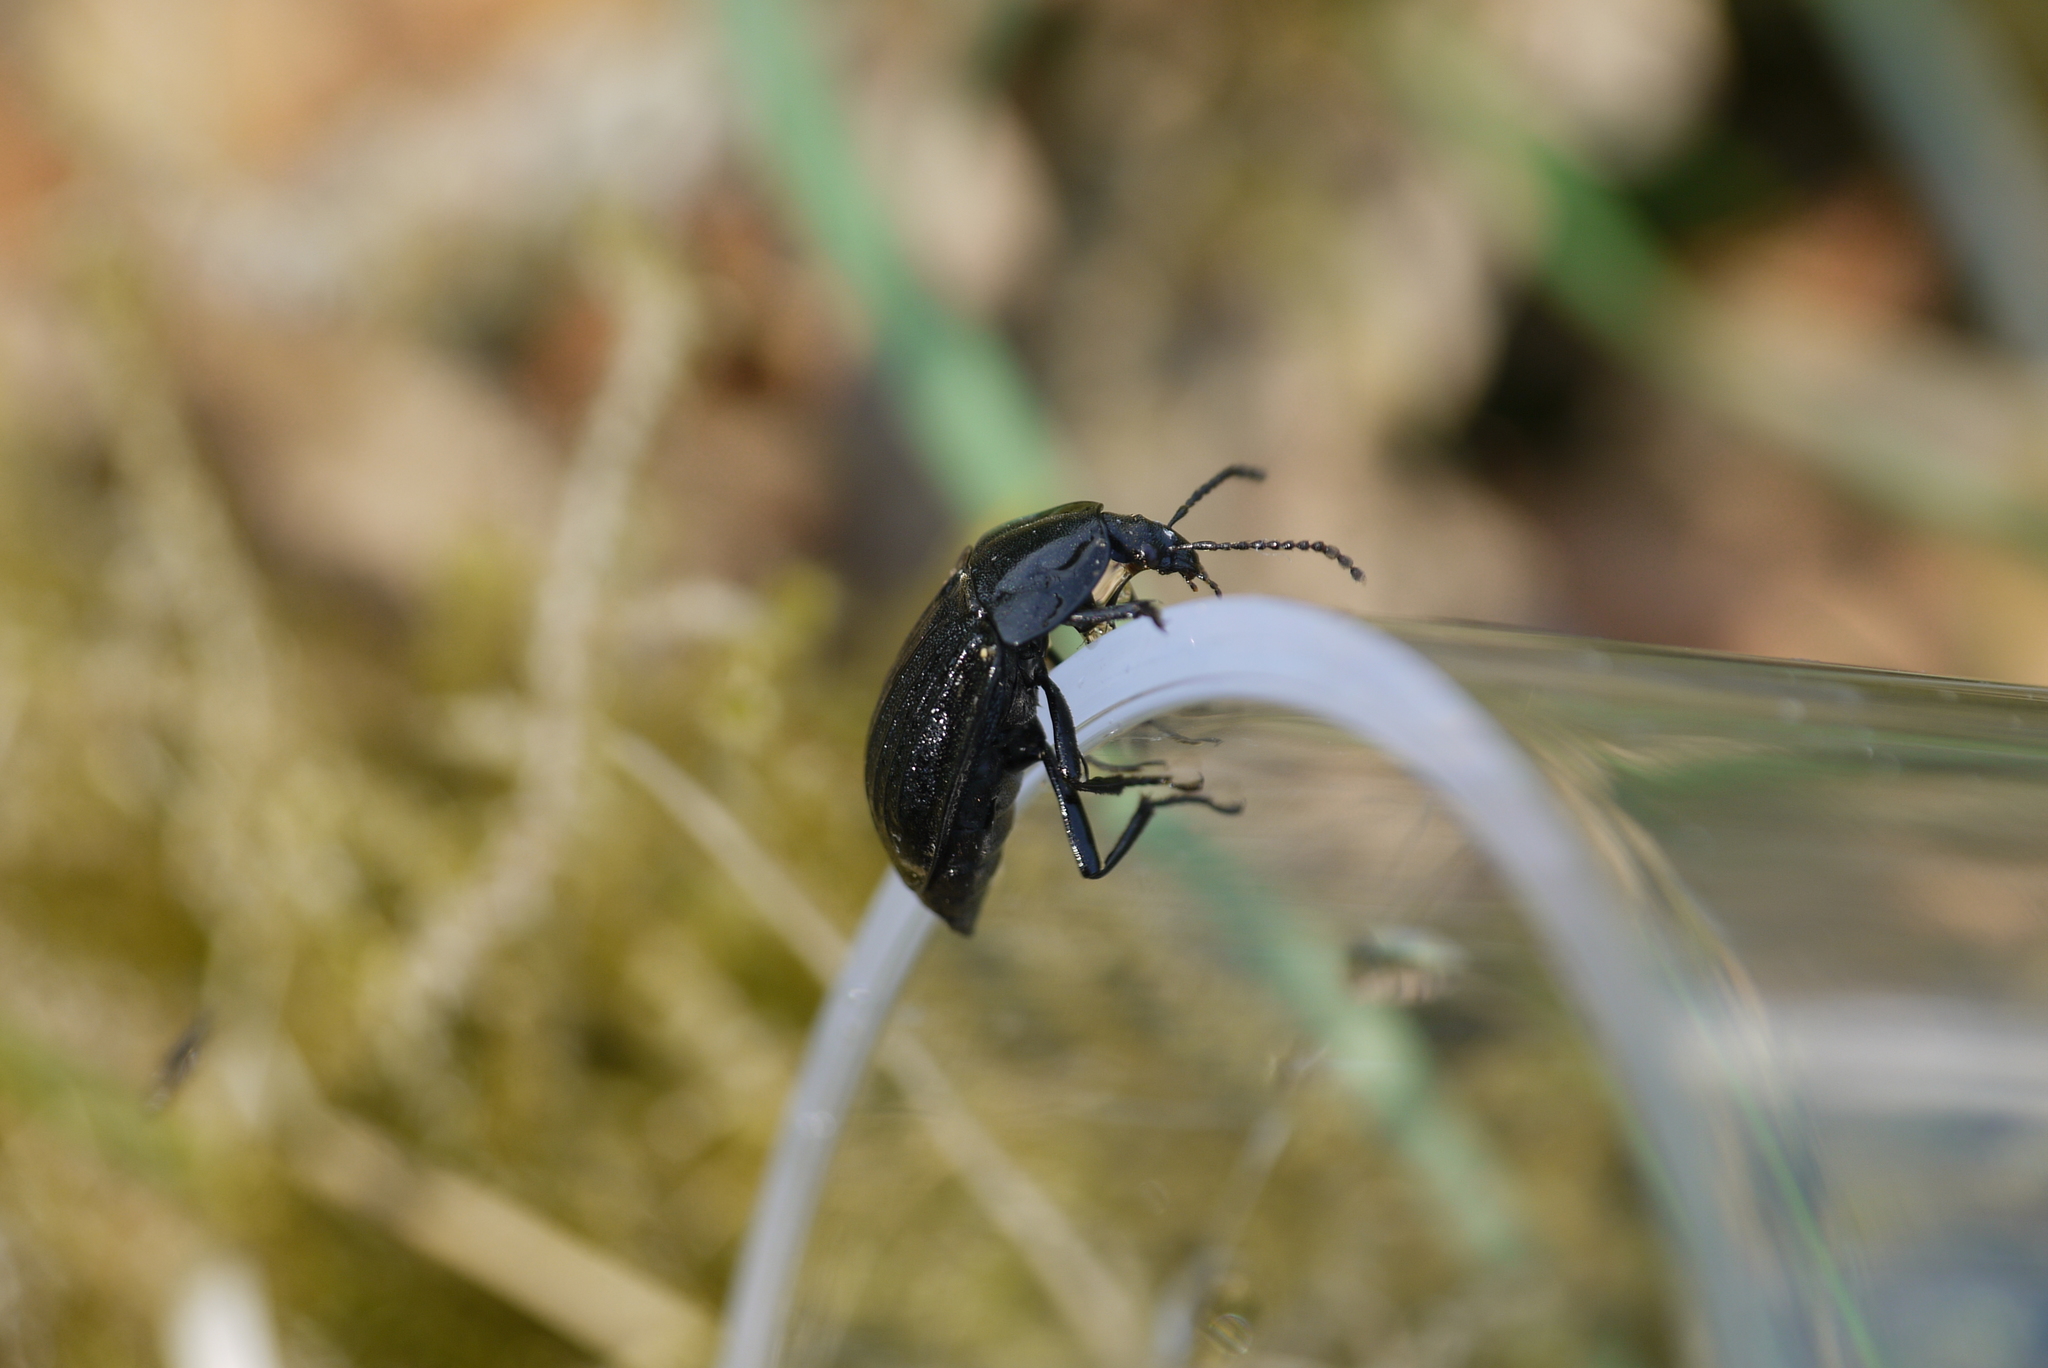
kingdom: Animalia
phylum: Arthropoda
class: Insecta
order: Coleoptera
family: Staphylinidae
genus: Silpha
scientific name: Silpha atrata
